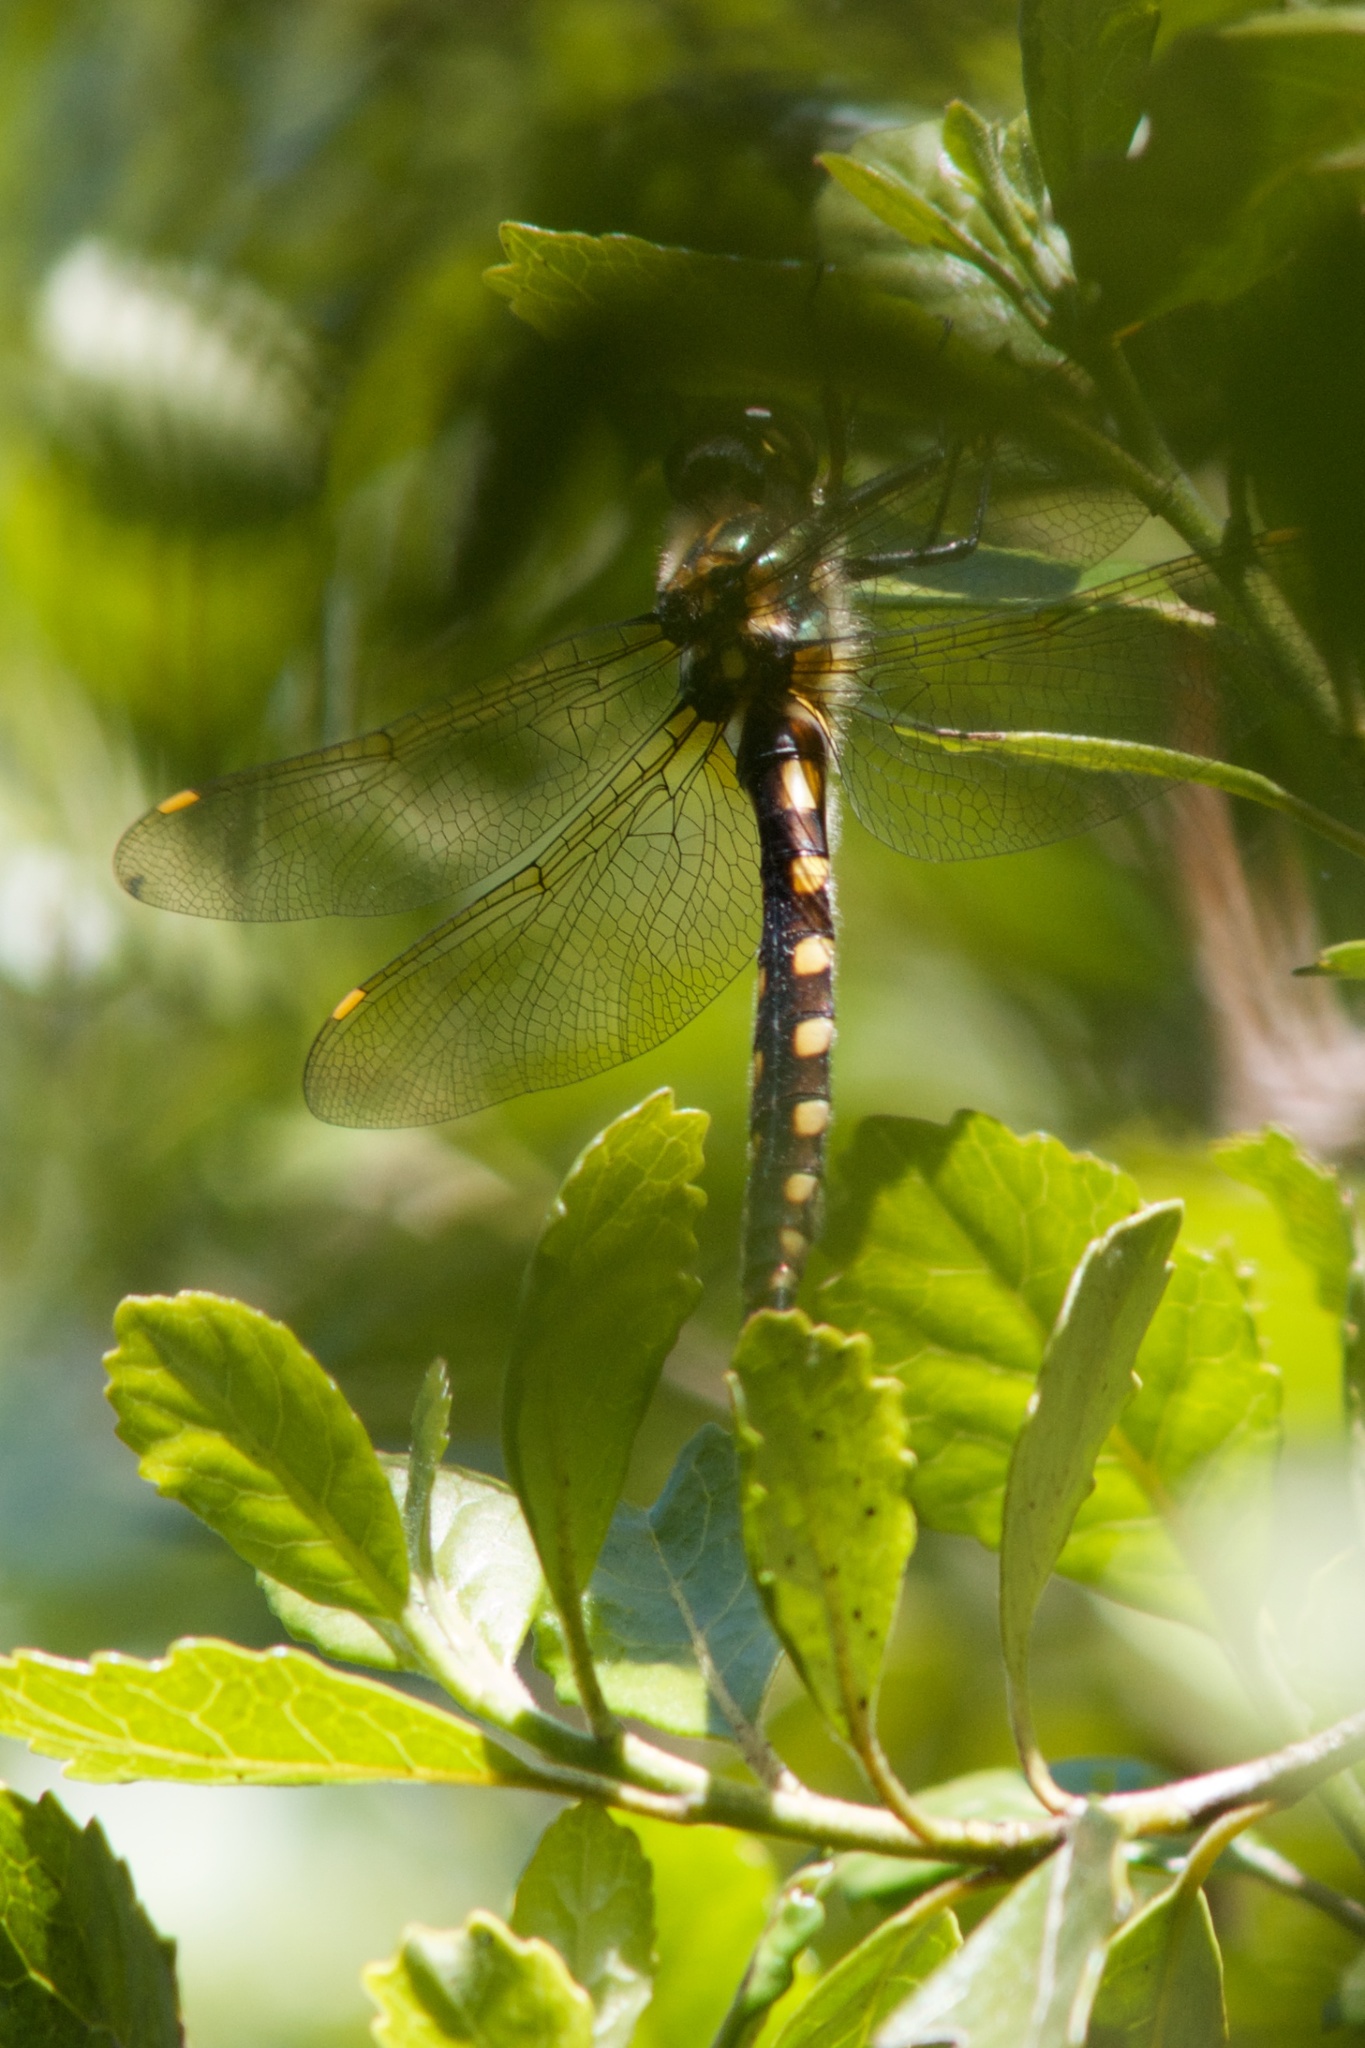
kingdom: Animalia
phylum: Arthropoda
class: Insecta
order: Odonata
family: Corduliidae
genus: Procordulia
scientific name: Procordulia grayi
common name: Yellow spotted dragonfly
